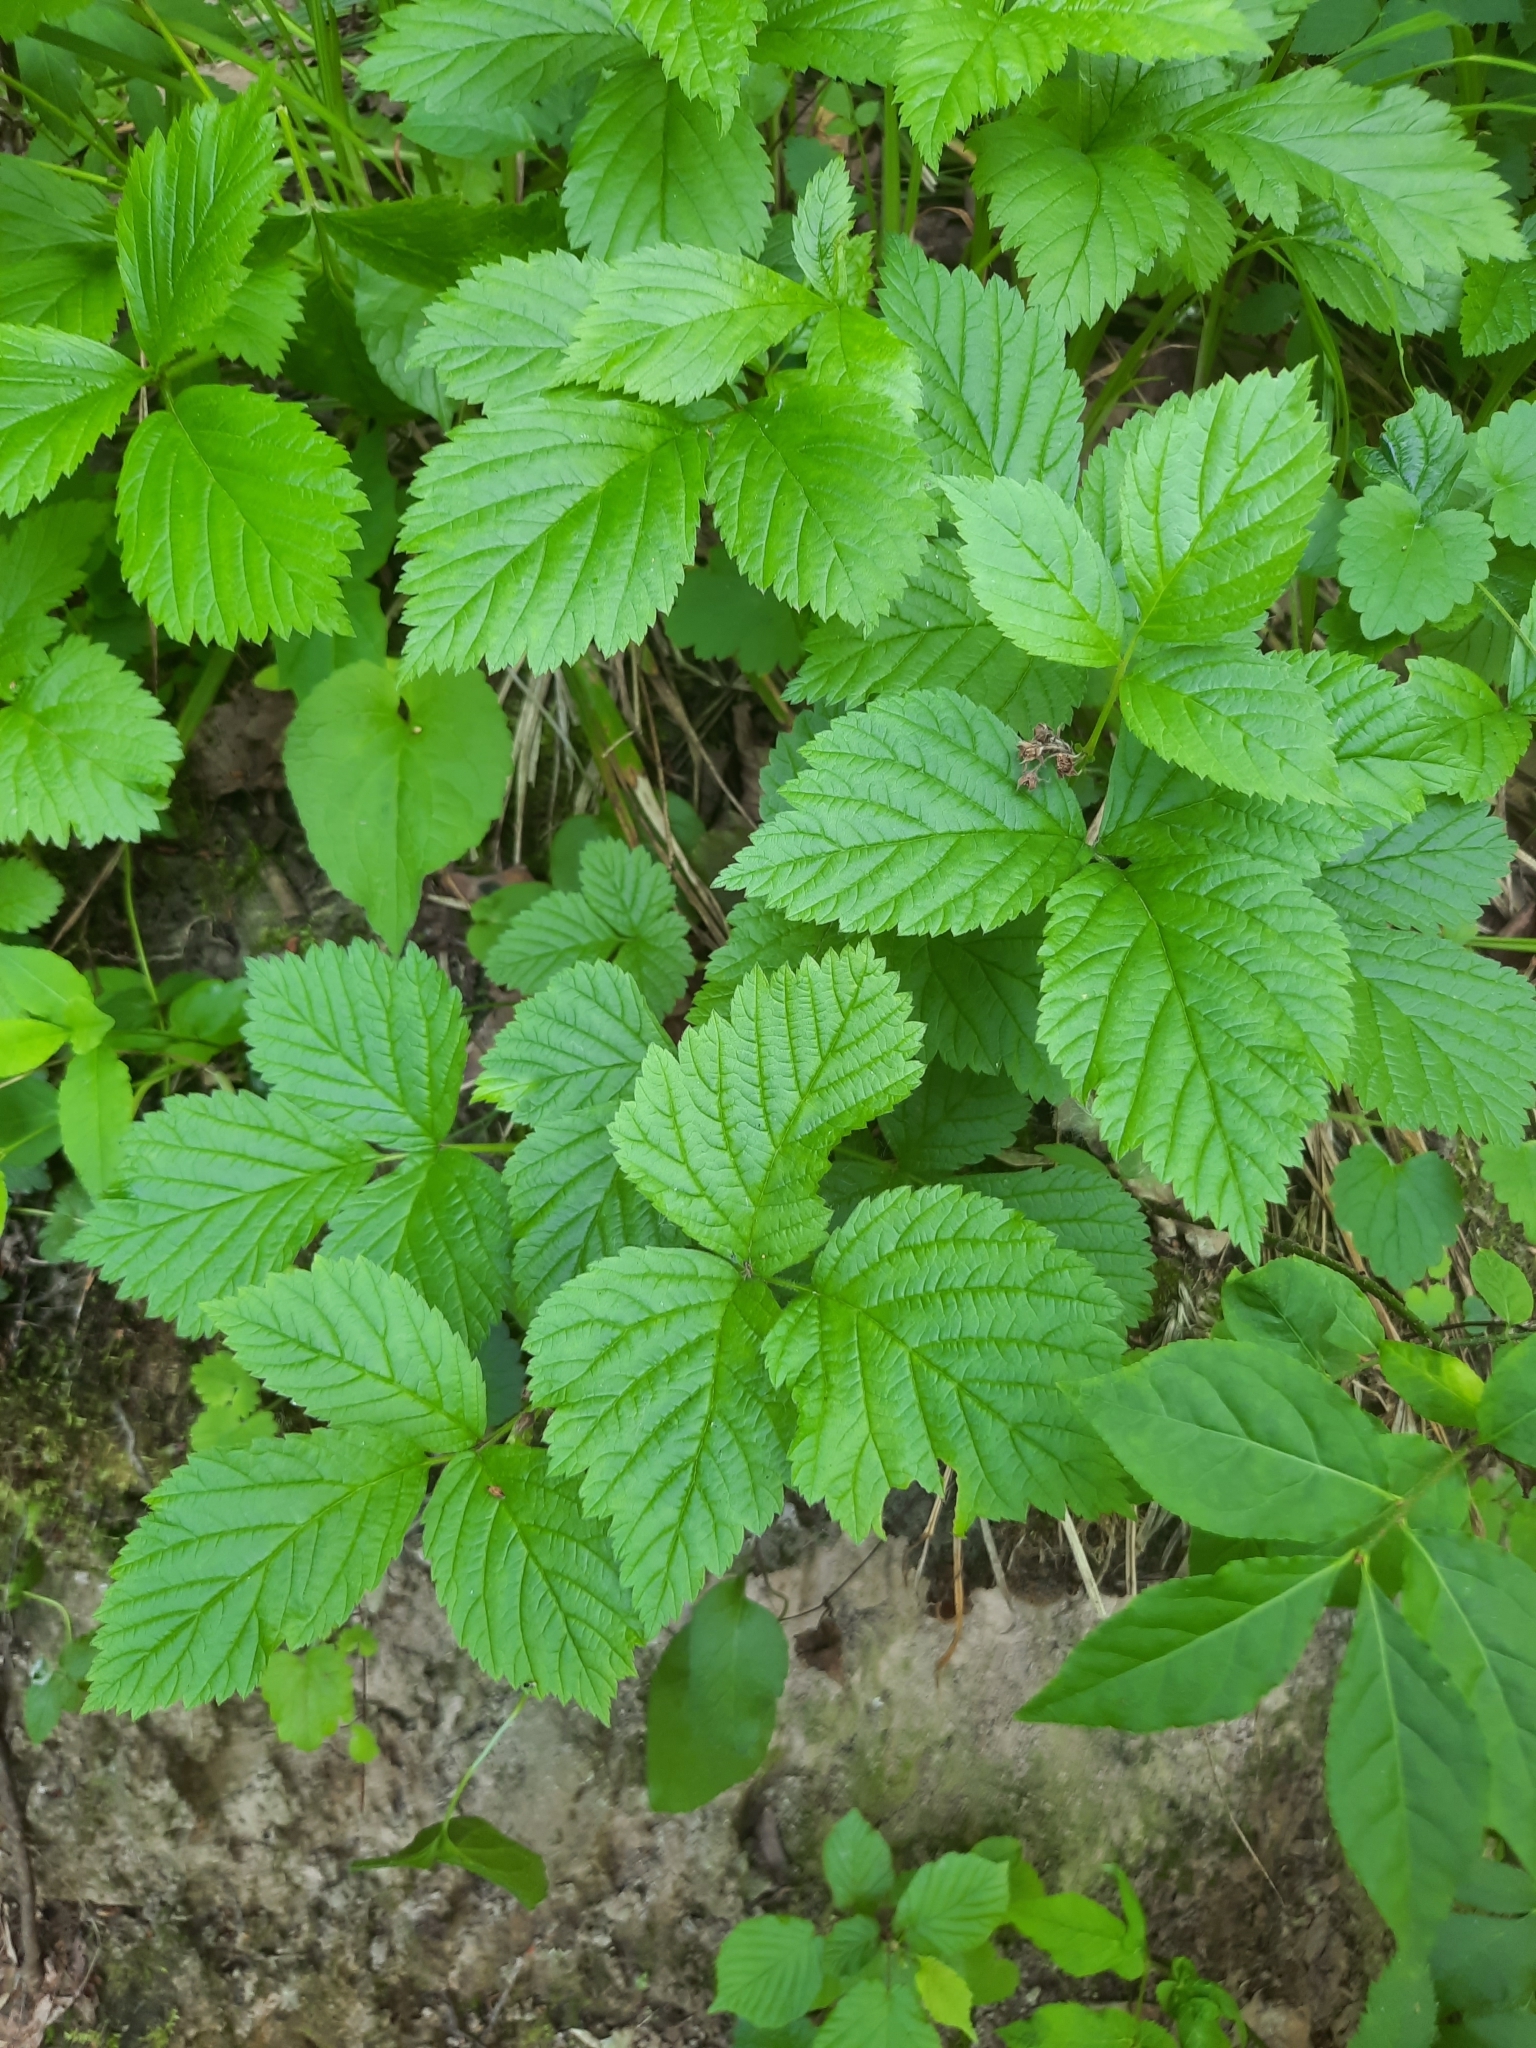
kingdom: Plantae
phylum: Tracheophyta
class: Magnoliopsida
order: Rosales
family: Rosaceae
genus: Rubus
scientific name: Rubus saxatilis
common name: Stone bramble
